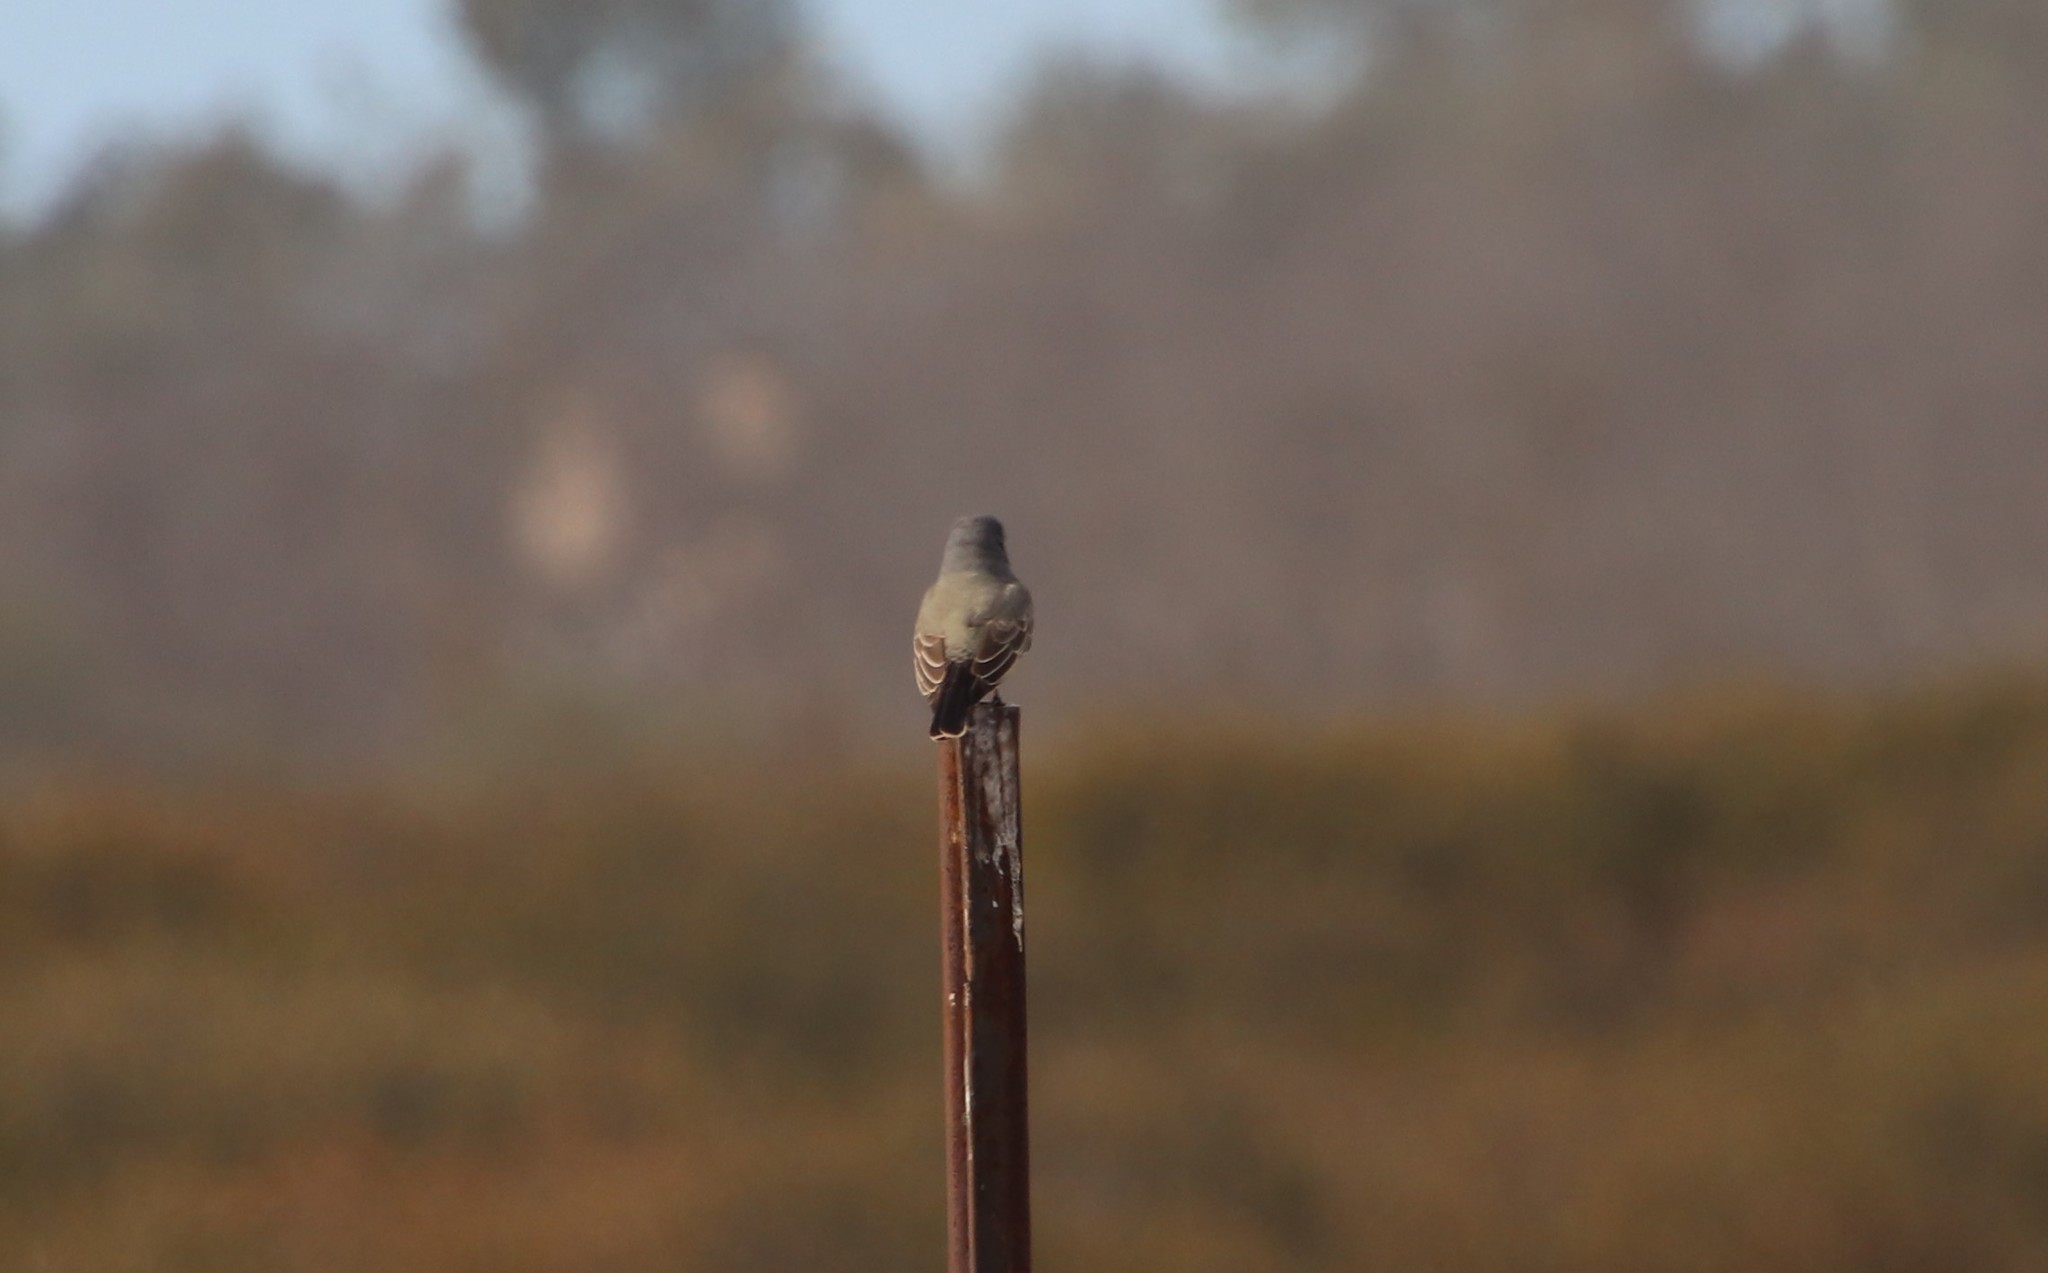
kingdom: Animalia
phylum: Chordata
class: Aves
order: Passeriformes
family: Tyrannidae
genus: Tyrannus
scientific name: Tyrannus vociferans
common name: Cassin's kingbird
